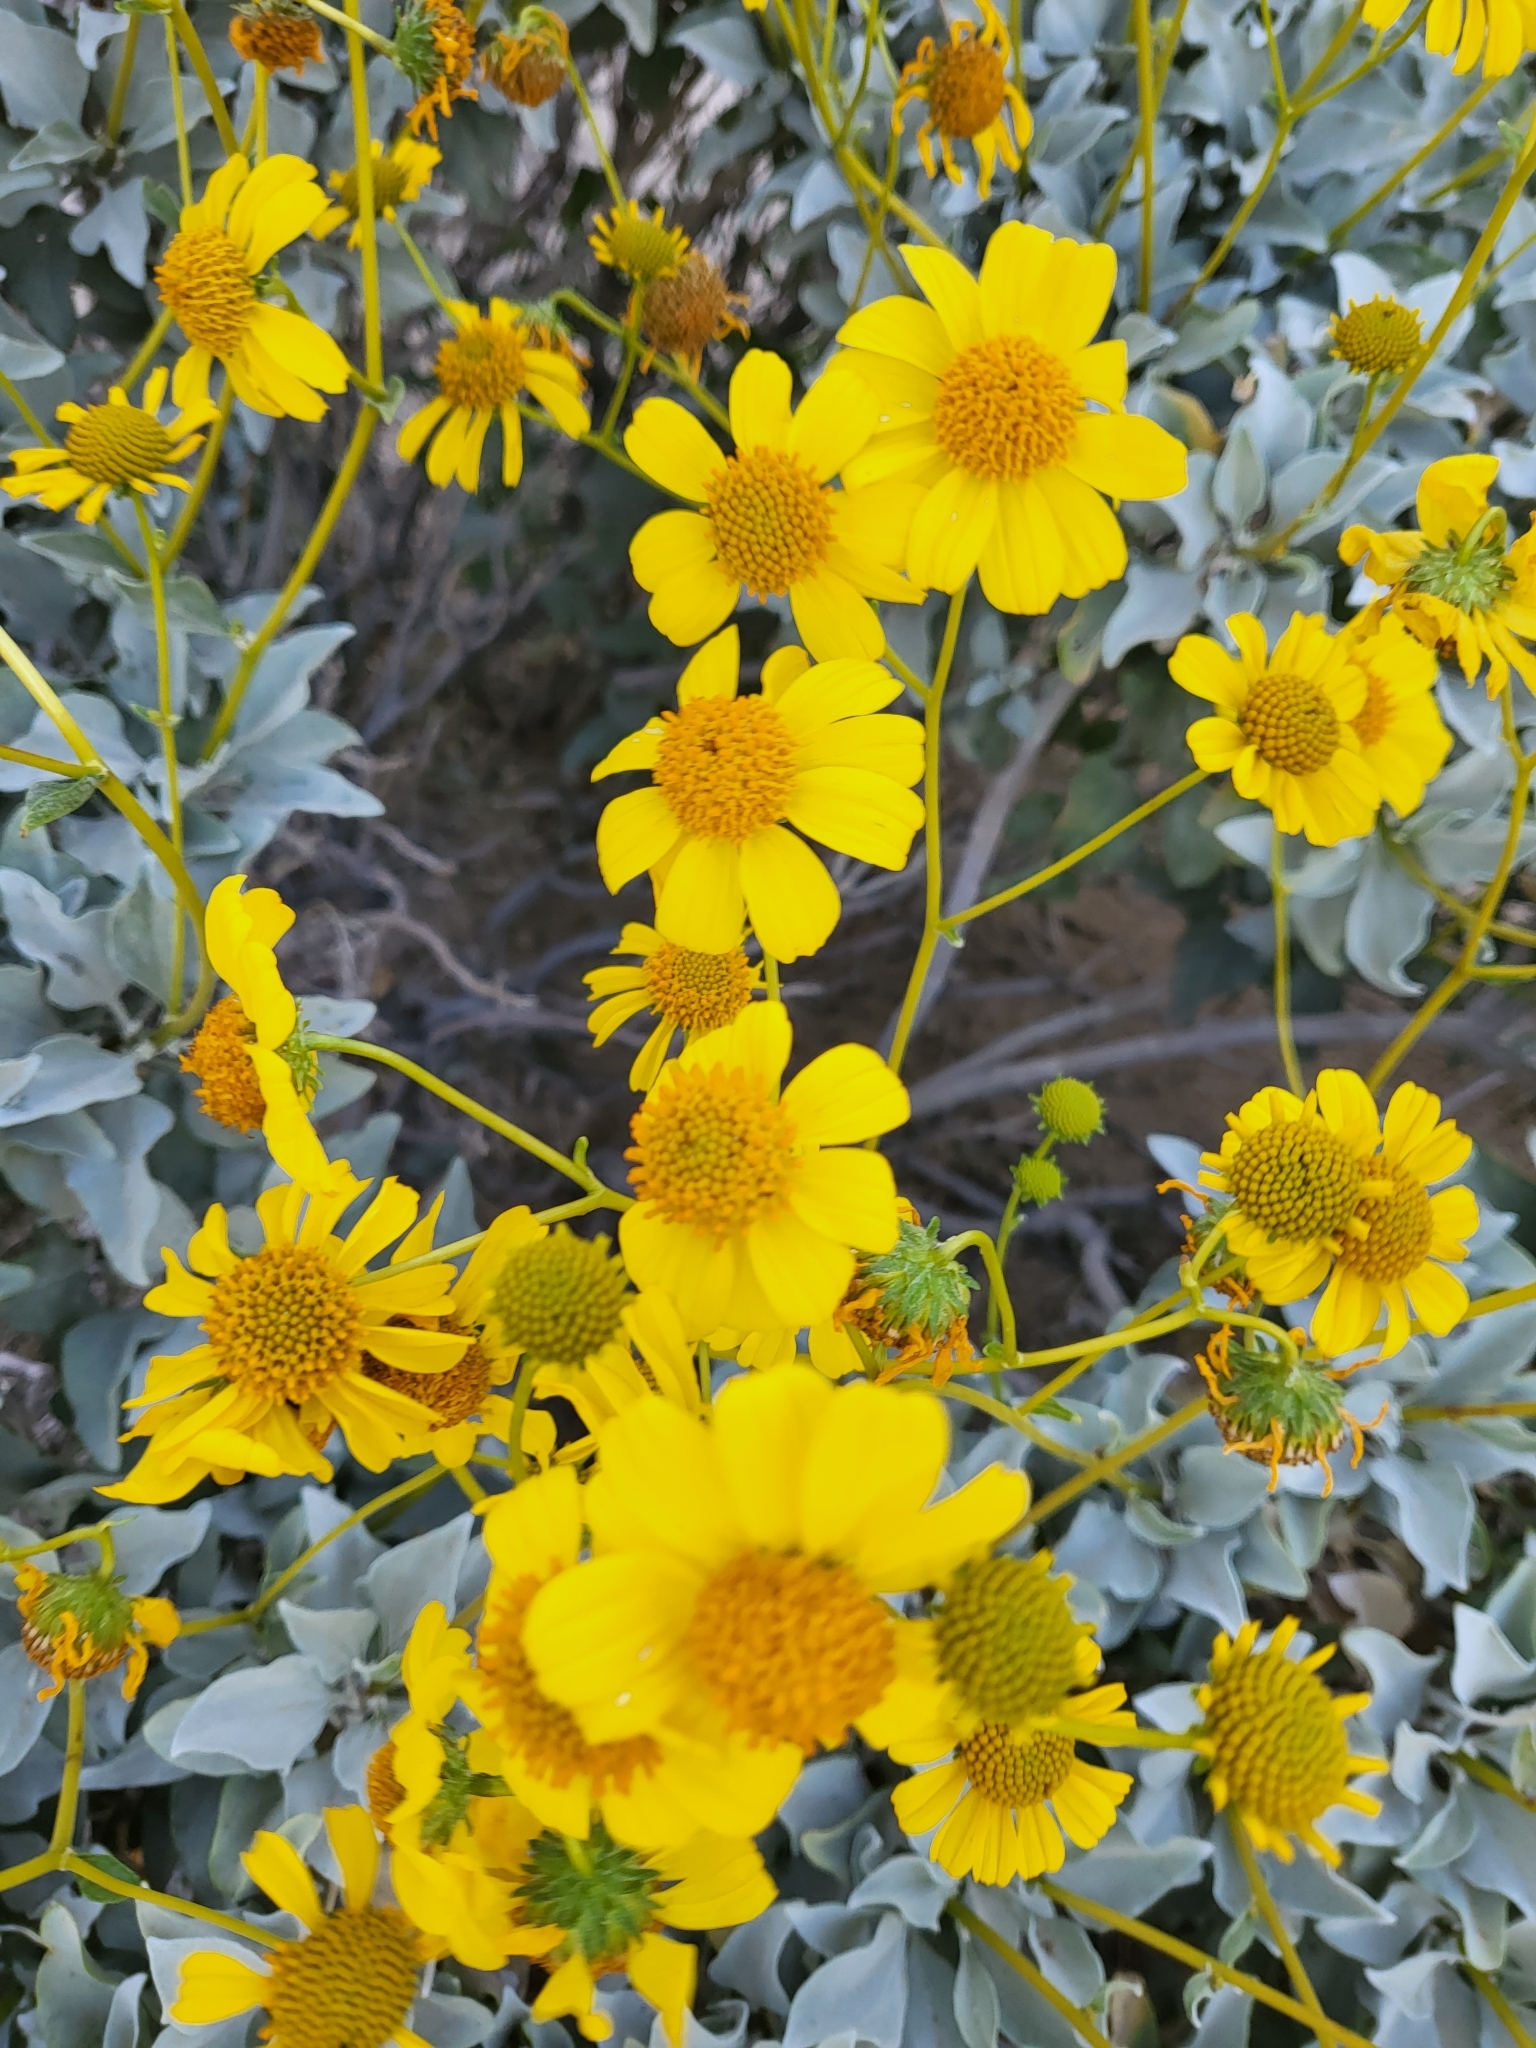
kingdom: Plantae
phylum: Tracheophyta
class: Magnoliopsida
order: Asterales
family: Asteraceae
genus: Encelia
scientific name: Encelia farinosa
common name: Brittlebush
